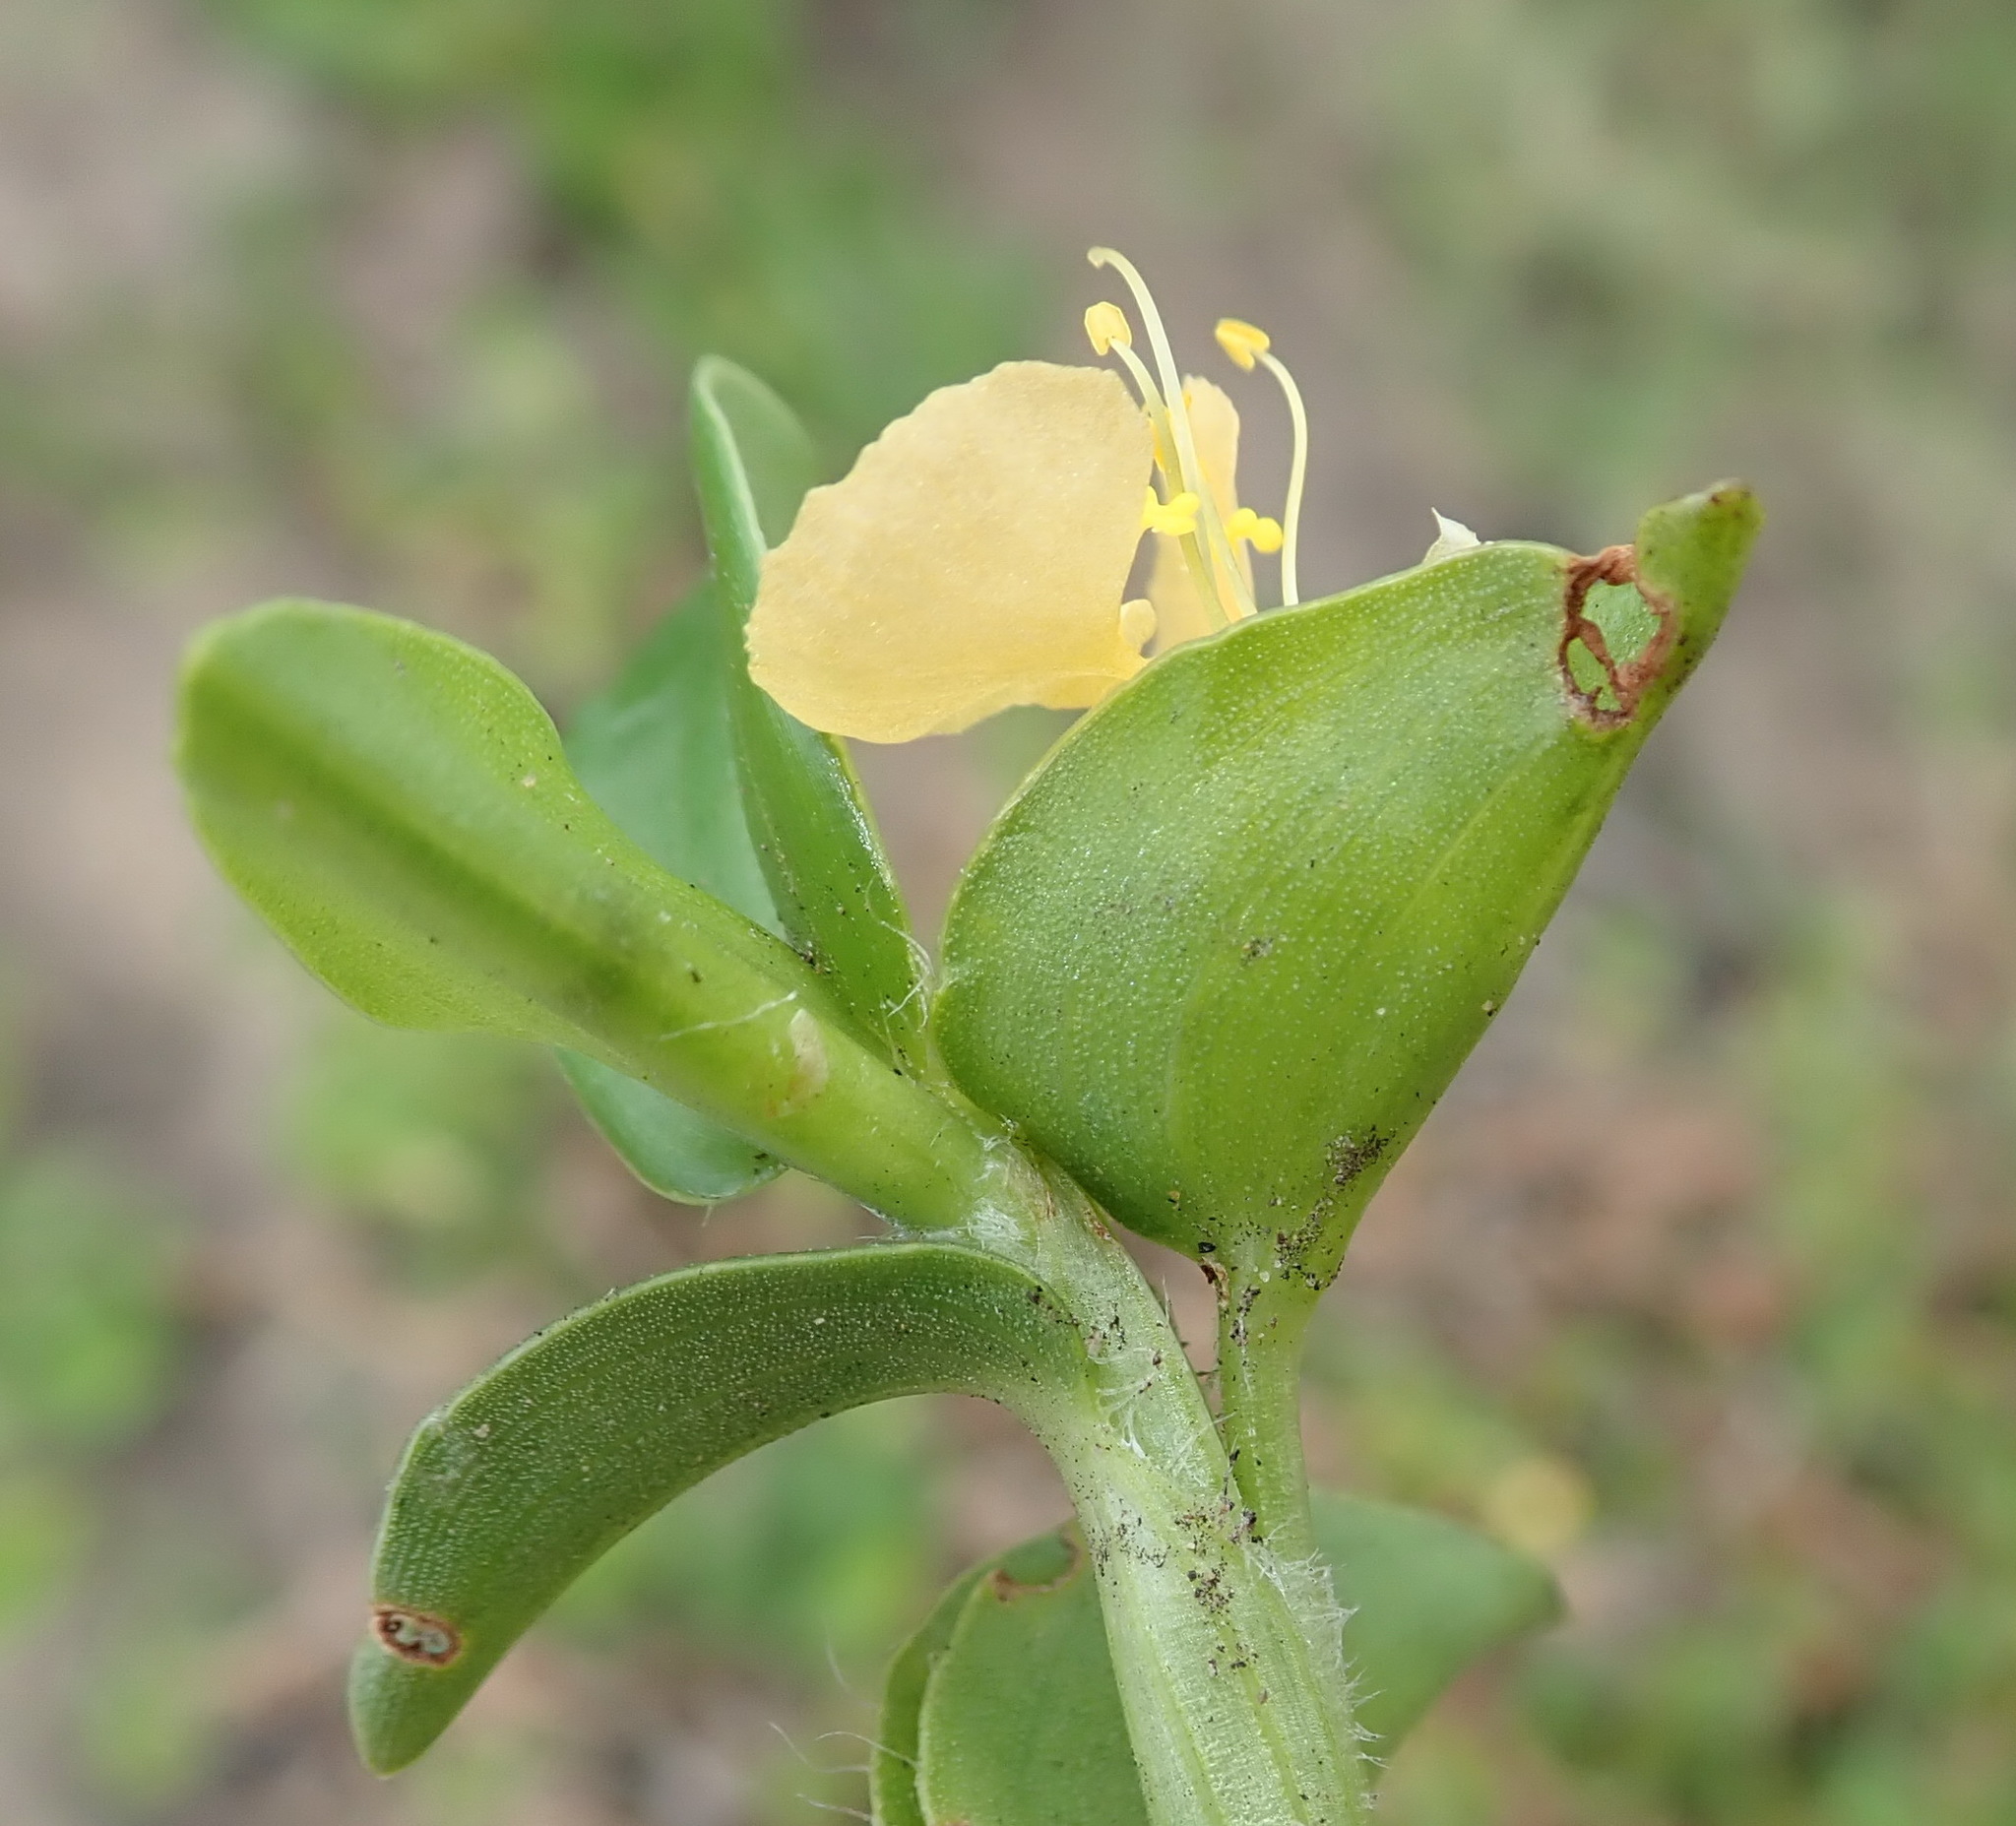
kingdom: Plantae
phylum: Tracheophyta
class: Liliopsida
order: Commelinales
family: Commelinaceae
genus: Commelina
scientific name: Commelina africana
